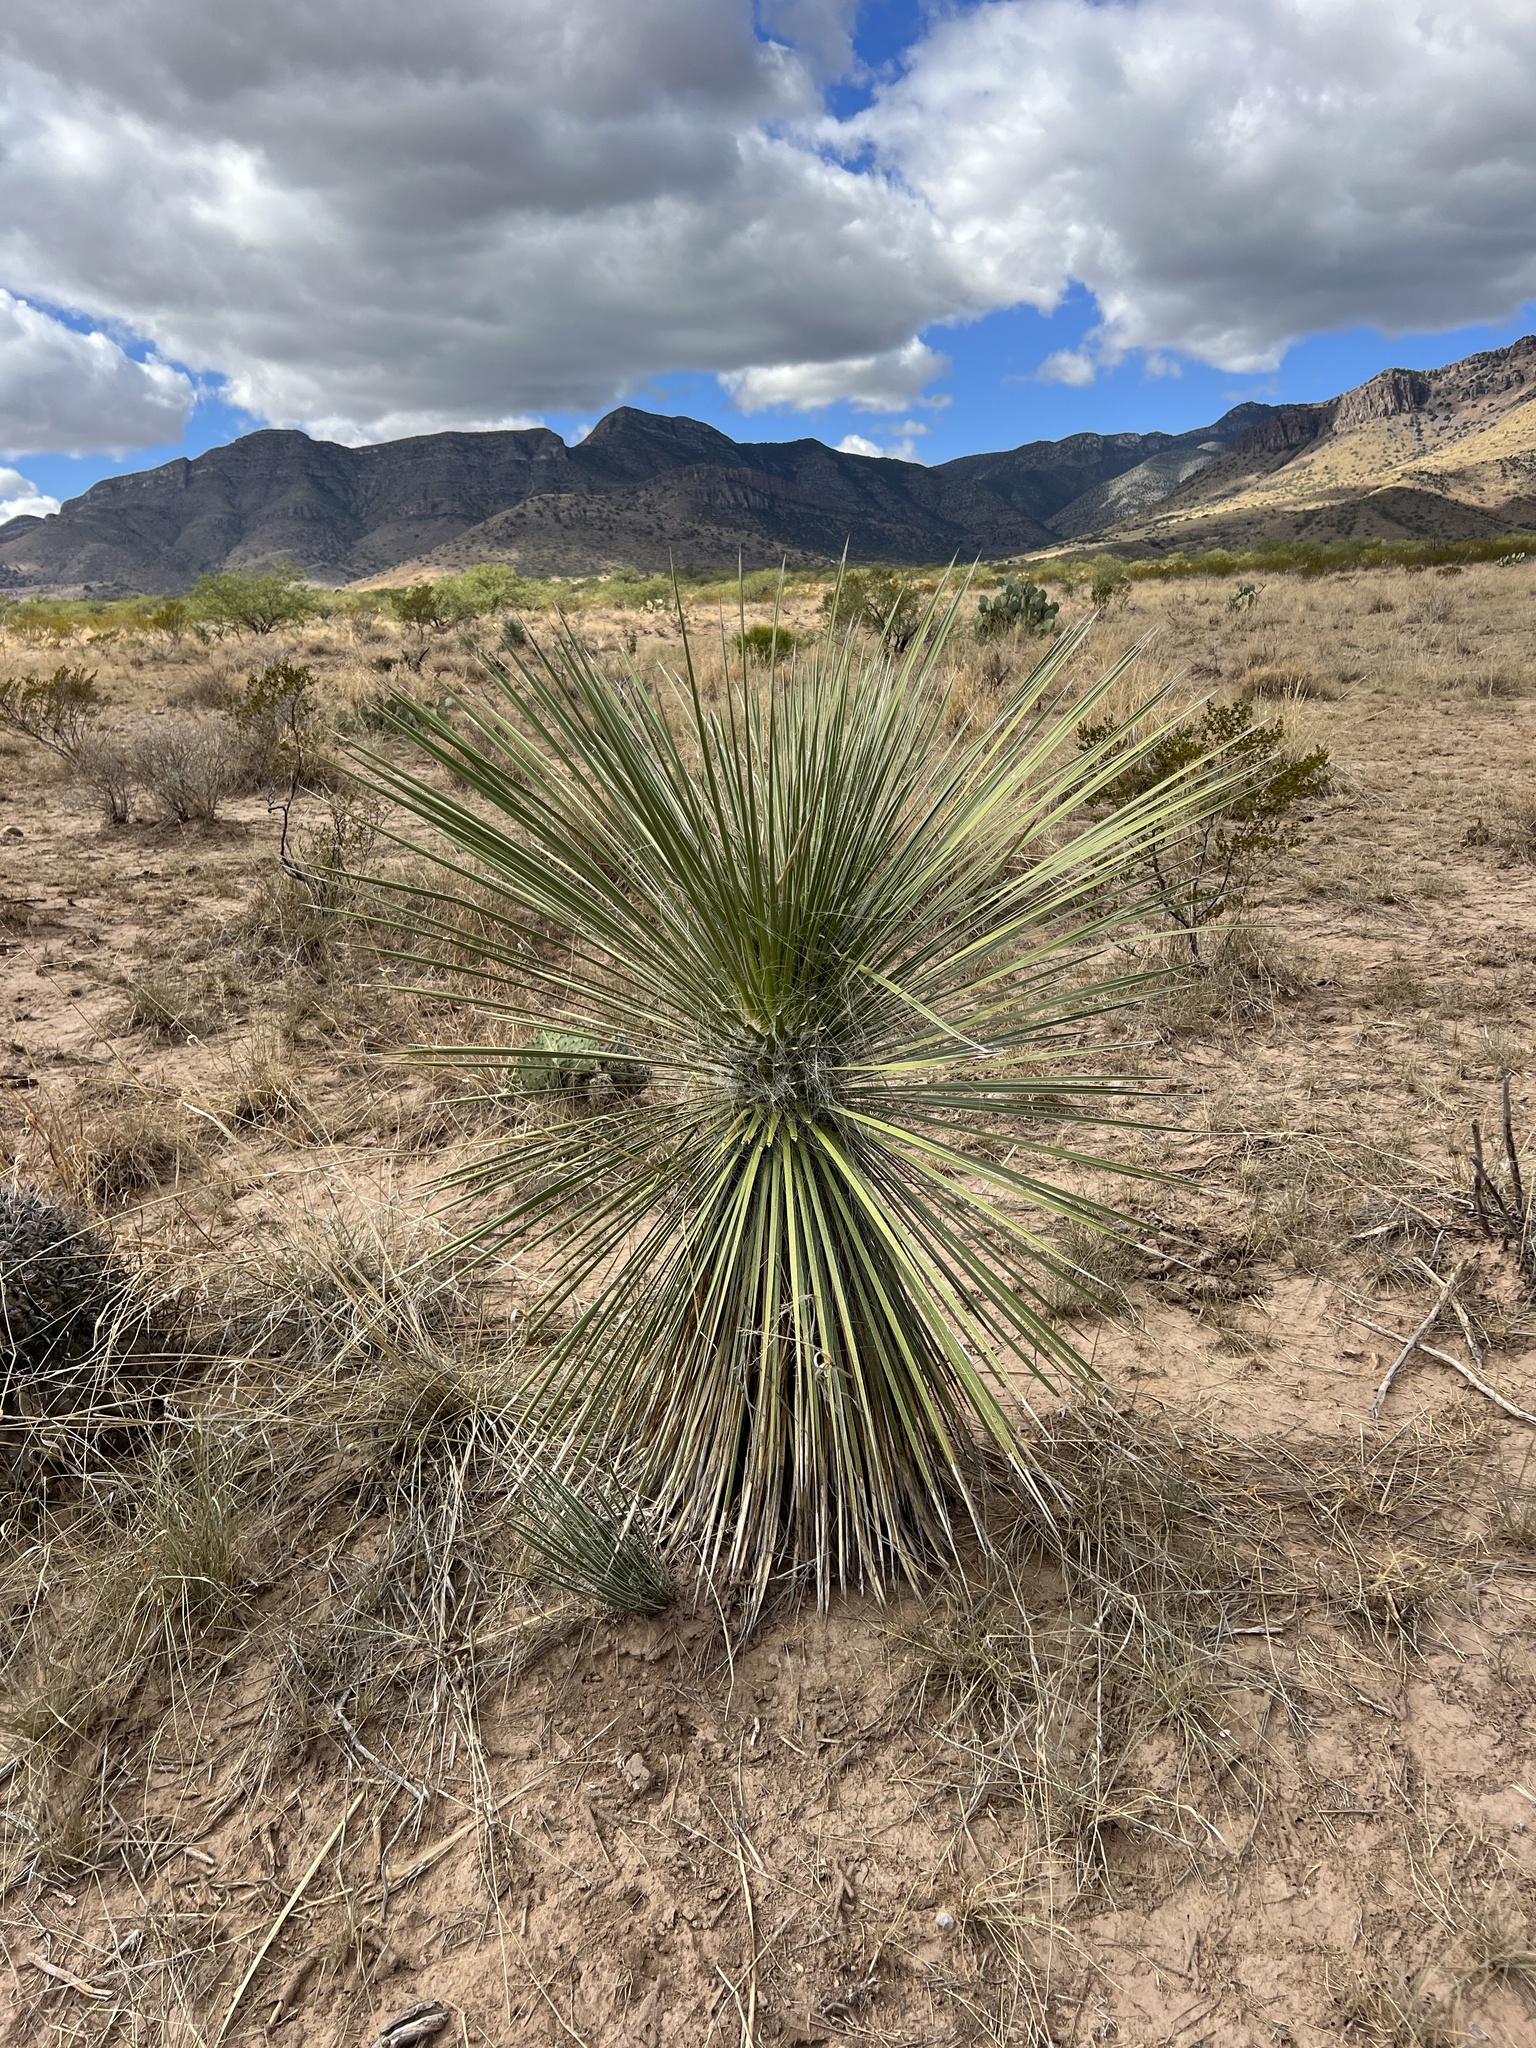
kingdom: Plantae
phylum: Tracheophyta
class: Liliopsida
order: Asparagales
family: Asparagaceae
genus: Yucca
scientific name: Yucca elata
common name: Palmella
